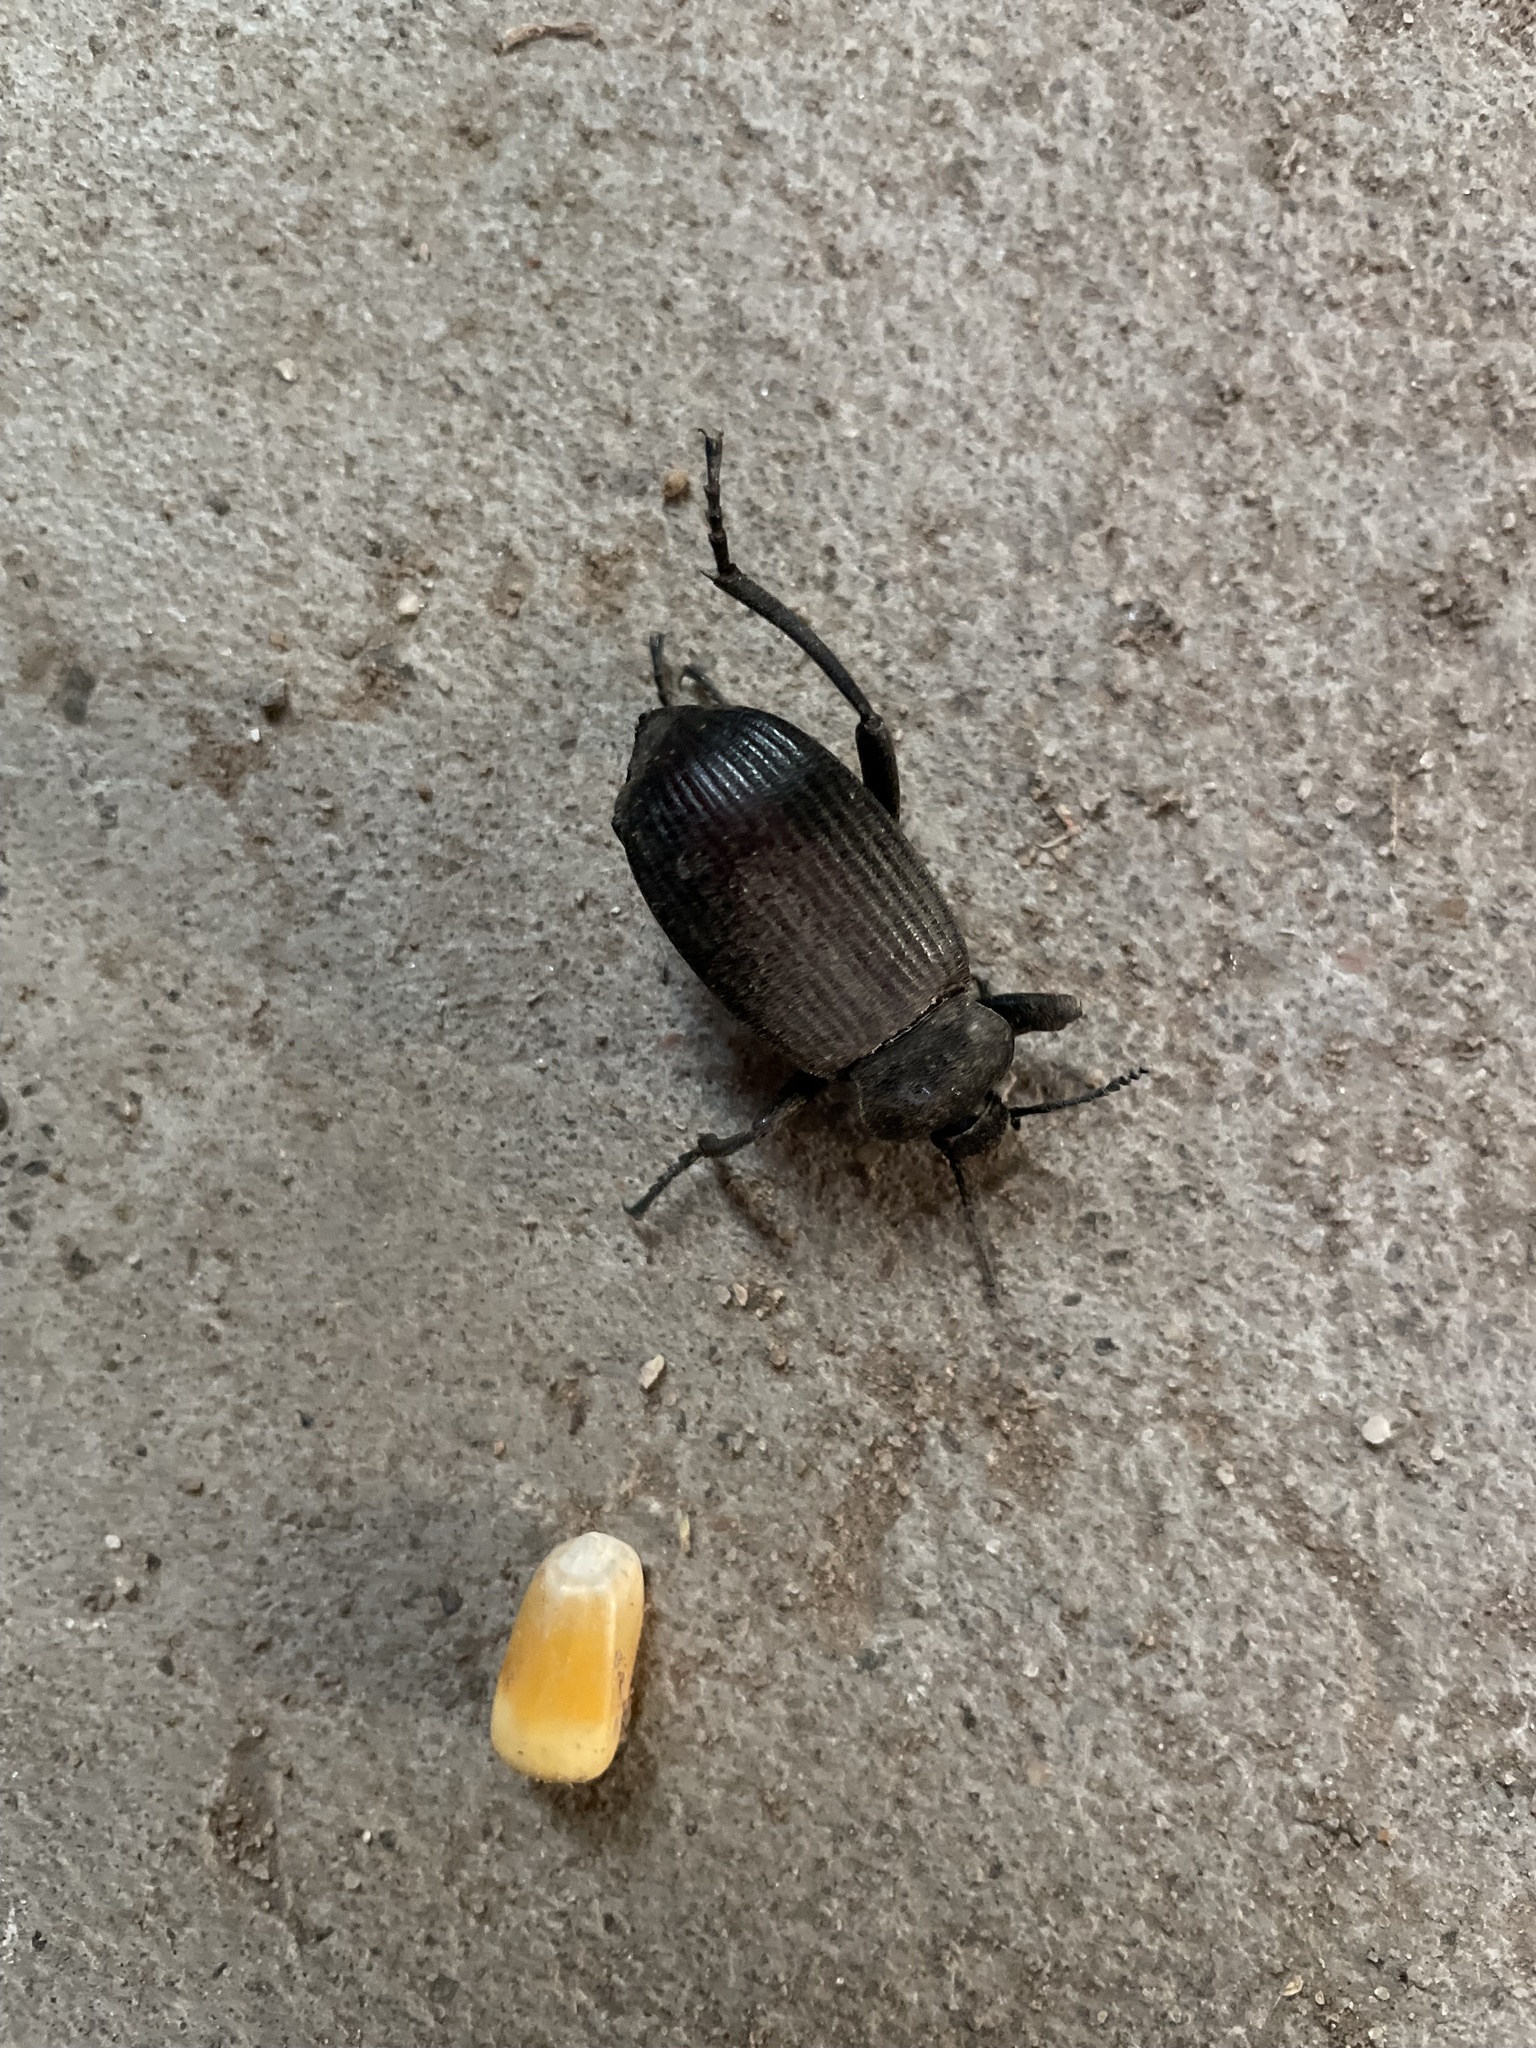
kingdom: Animalia
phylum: Arthropoda
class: Insecta
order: Coleoptera
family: Tenebrionidae
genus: Eleodes
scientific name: Eleodes acuta
